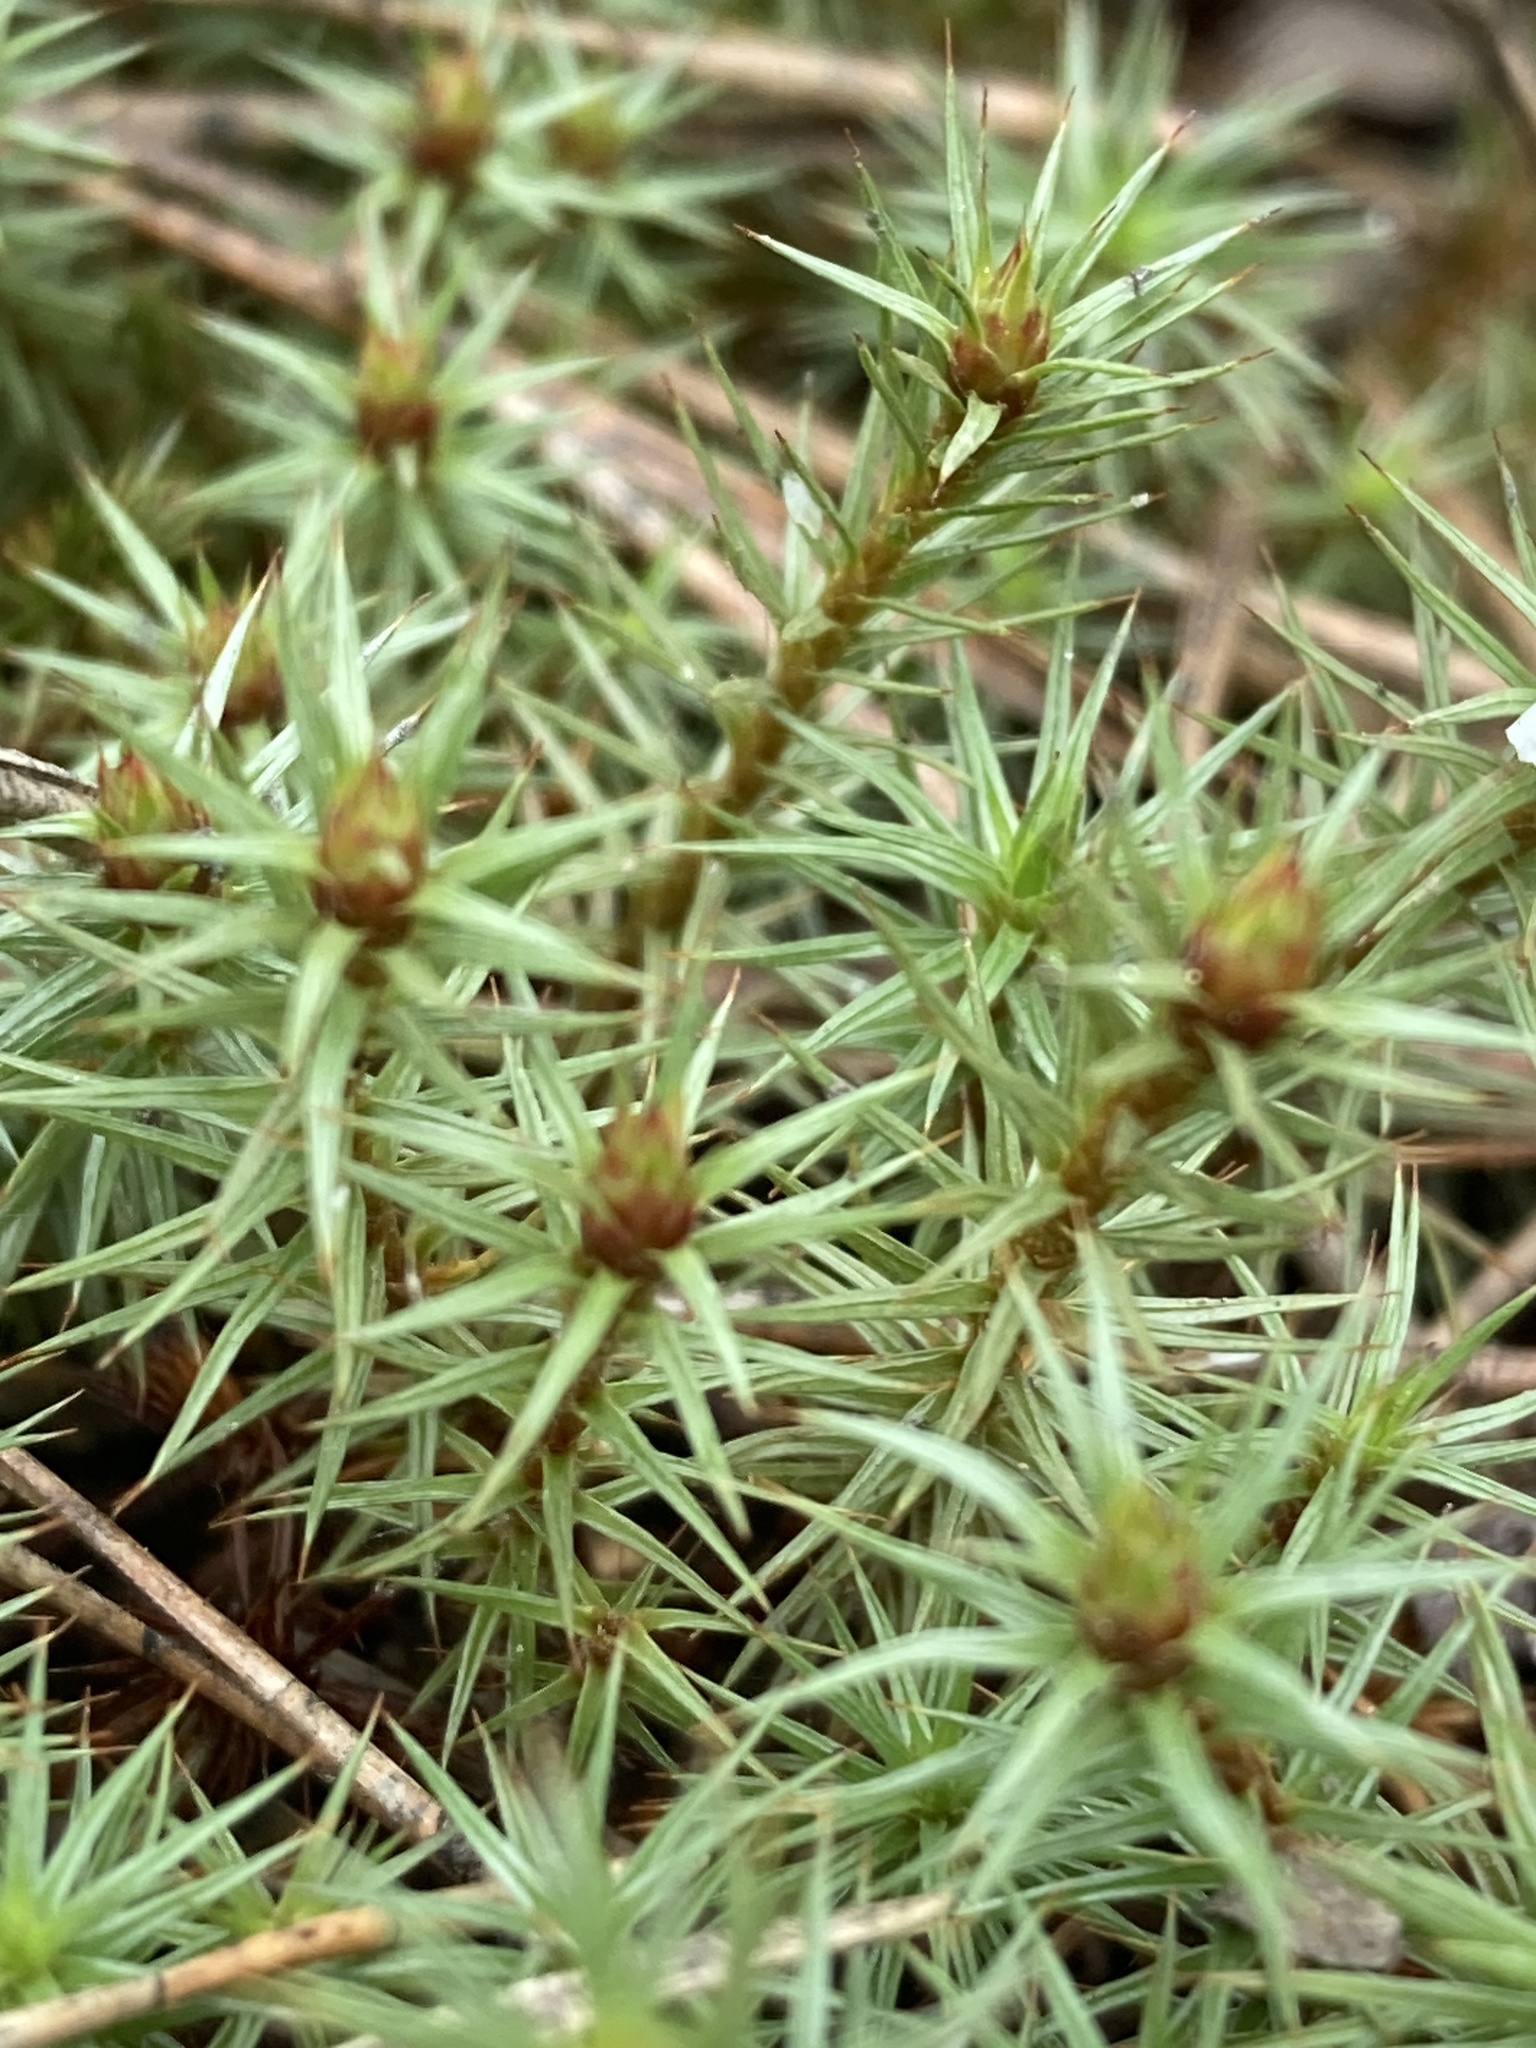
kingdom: Plantae
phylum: Bryophyta
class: Polytrichopsida
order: Polytrichales
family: Polytrichaceae
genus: Polytrichum
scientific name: Polytrichum juniperinum
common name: Juniper haircap moss
